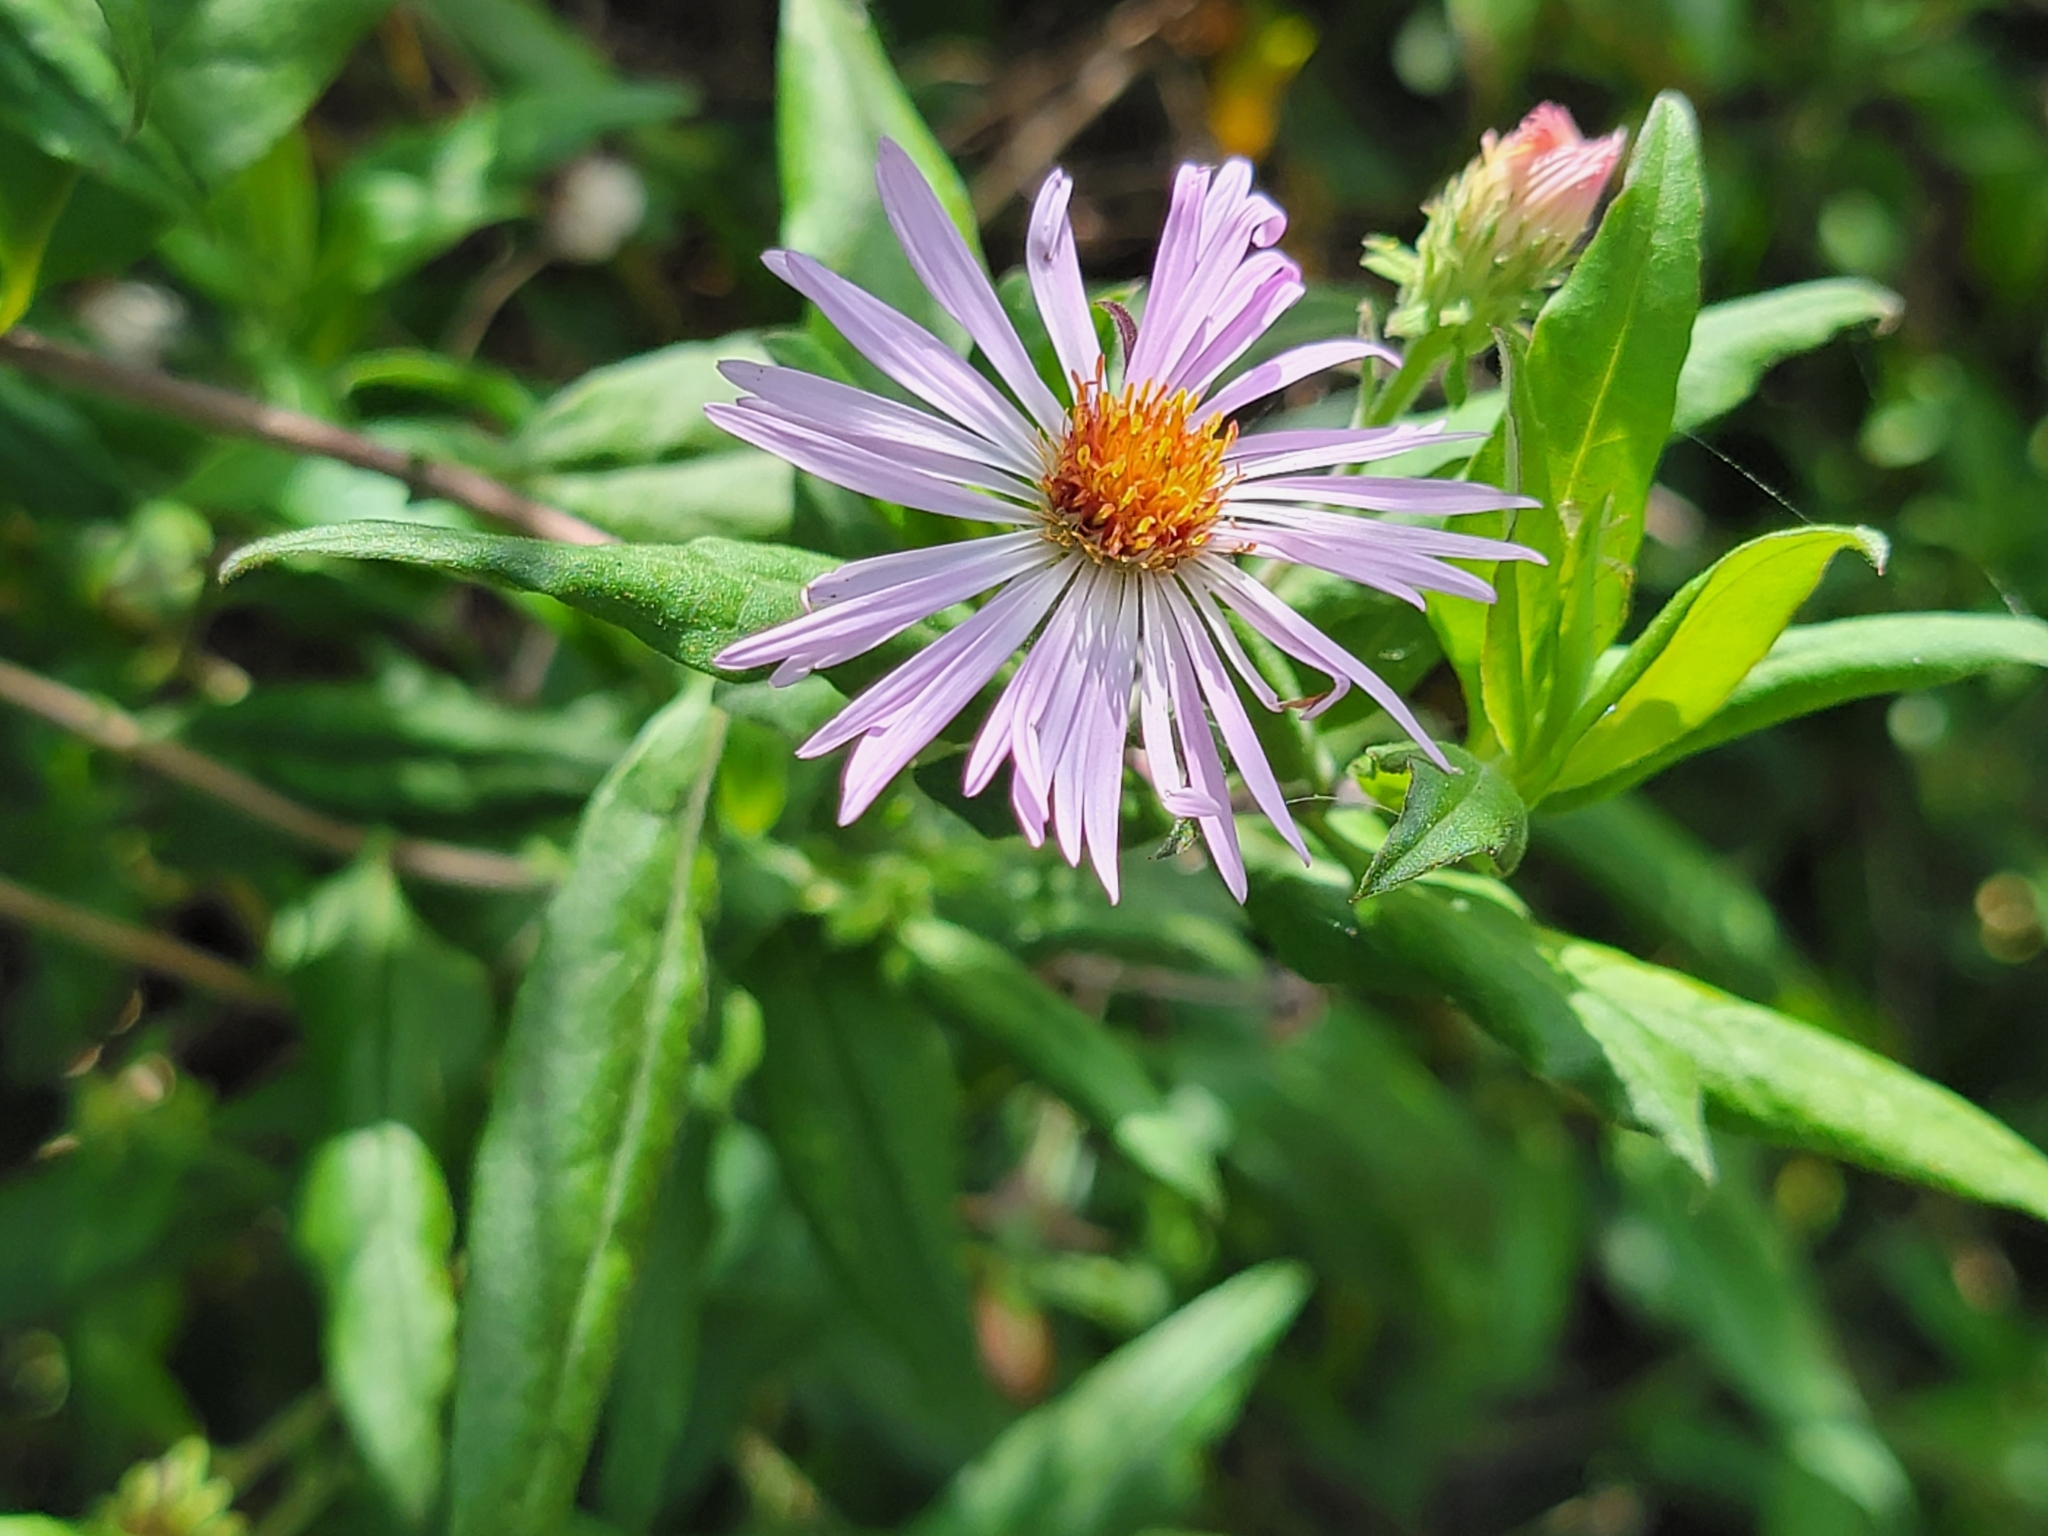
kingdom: Plantae
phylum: Tracheophyta
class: Magnoliopsida
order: Asterales
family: Asteraceae
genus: Ampelaster
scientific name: Ampelaster carolinianus
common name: Climbing aster
